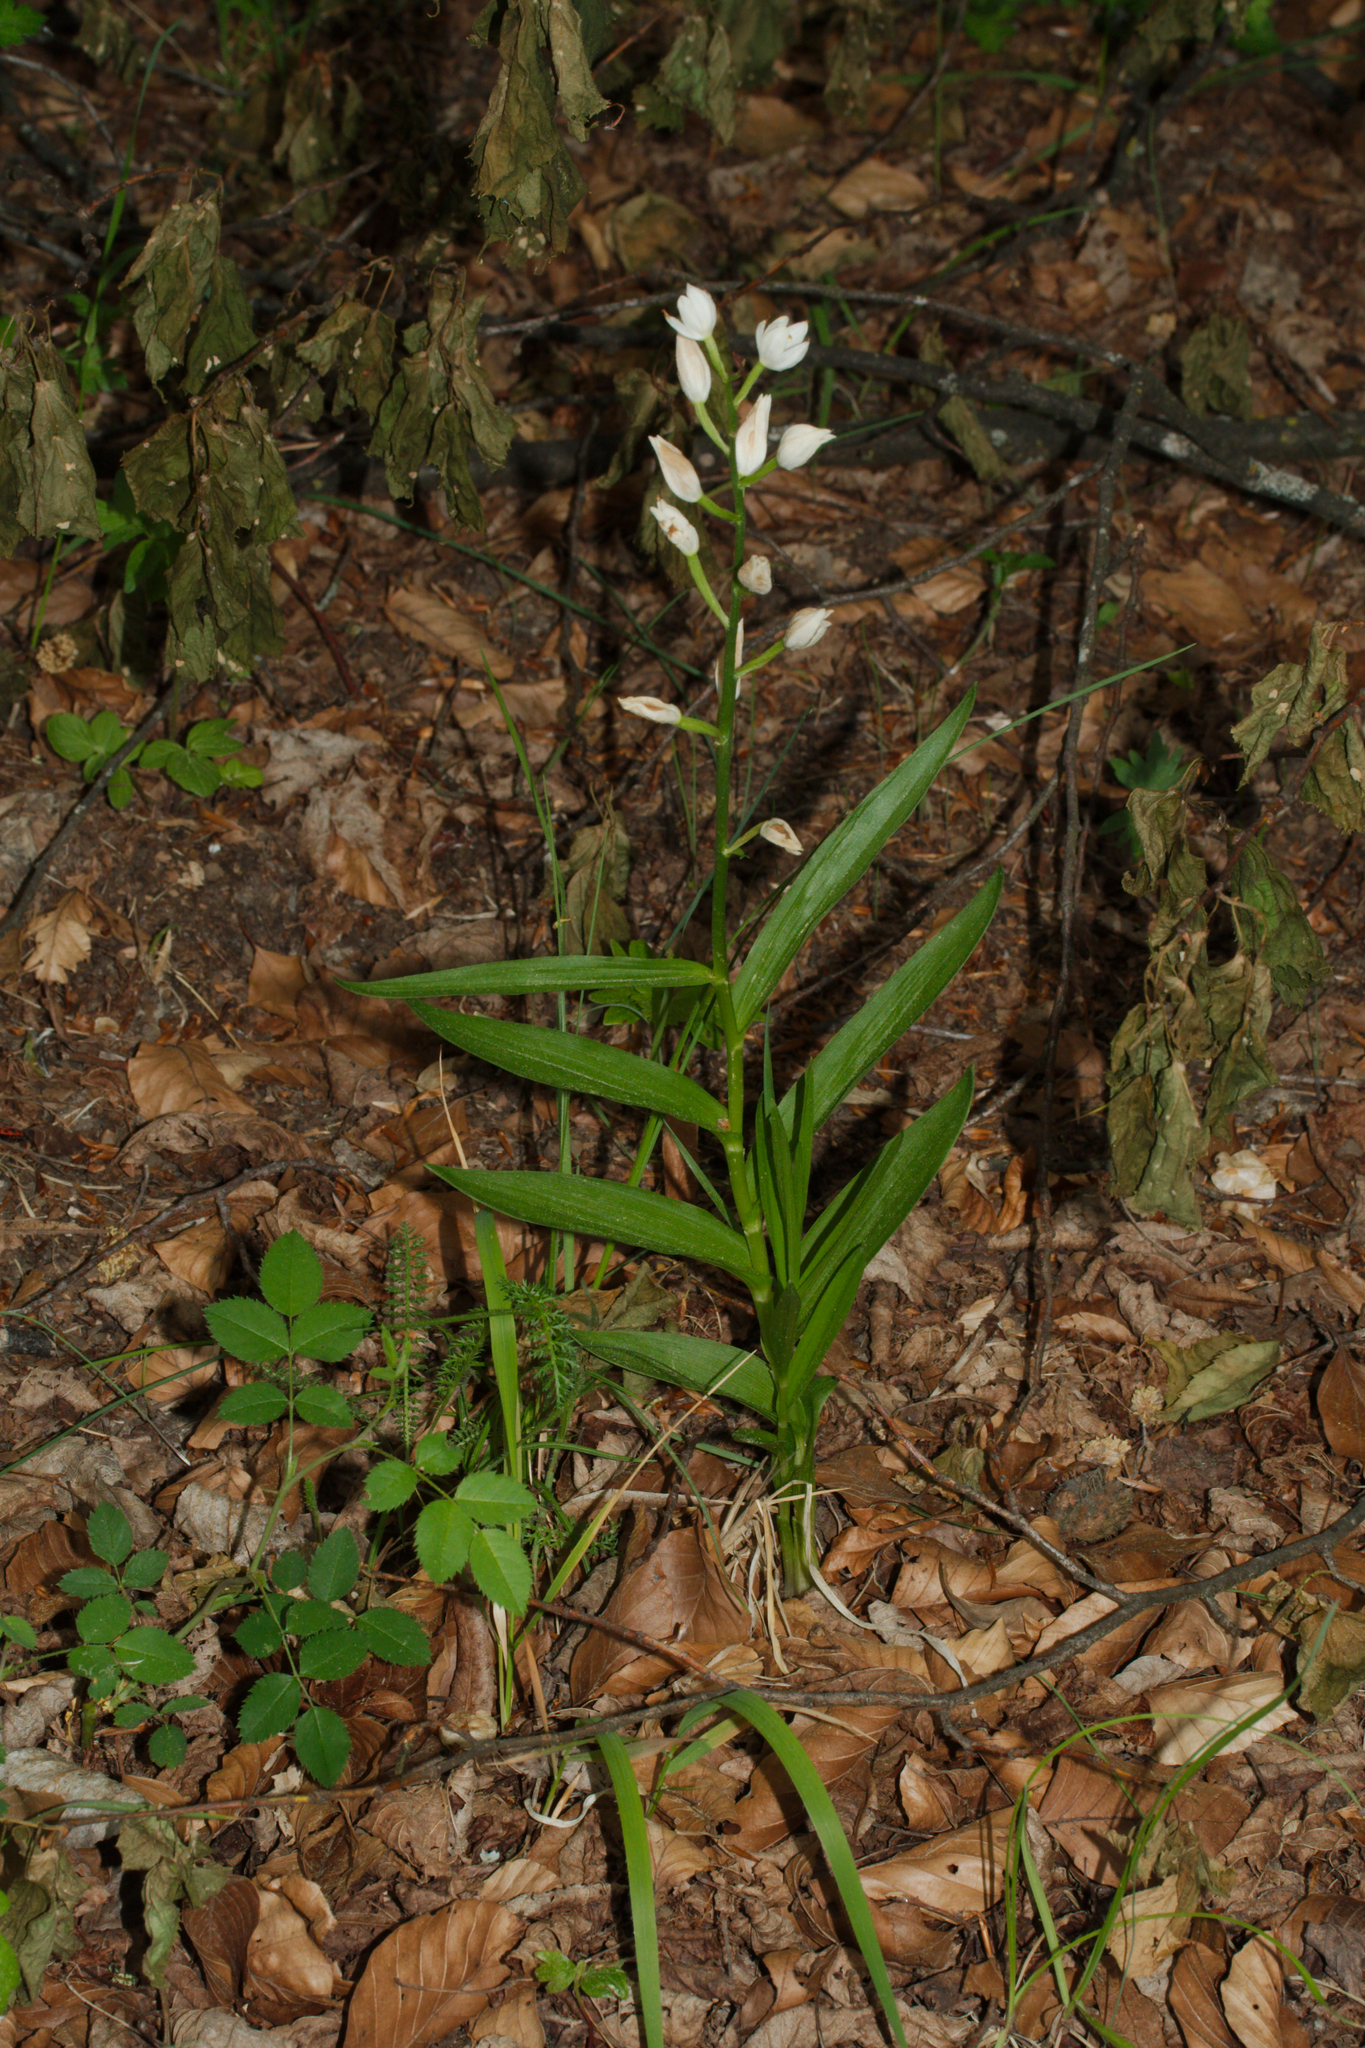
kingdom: Plantae
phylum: Tracheophyta
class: Liliopsida
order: Asparagales
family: Orchidaceae
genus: Cephalanthera
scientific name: Cephalanthera longifolia
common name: Narrow-leaved helleborine
